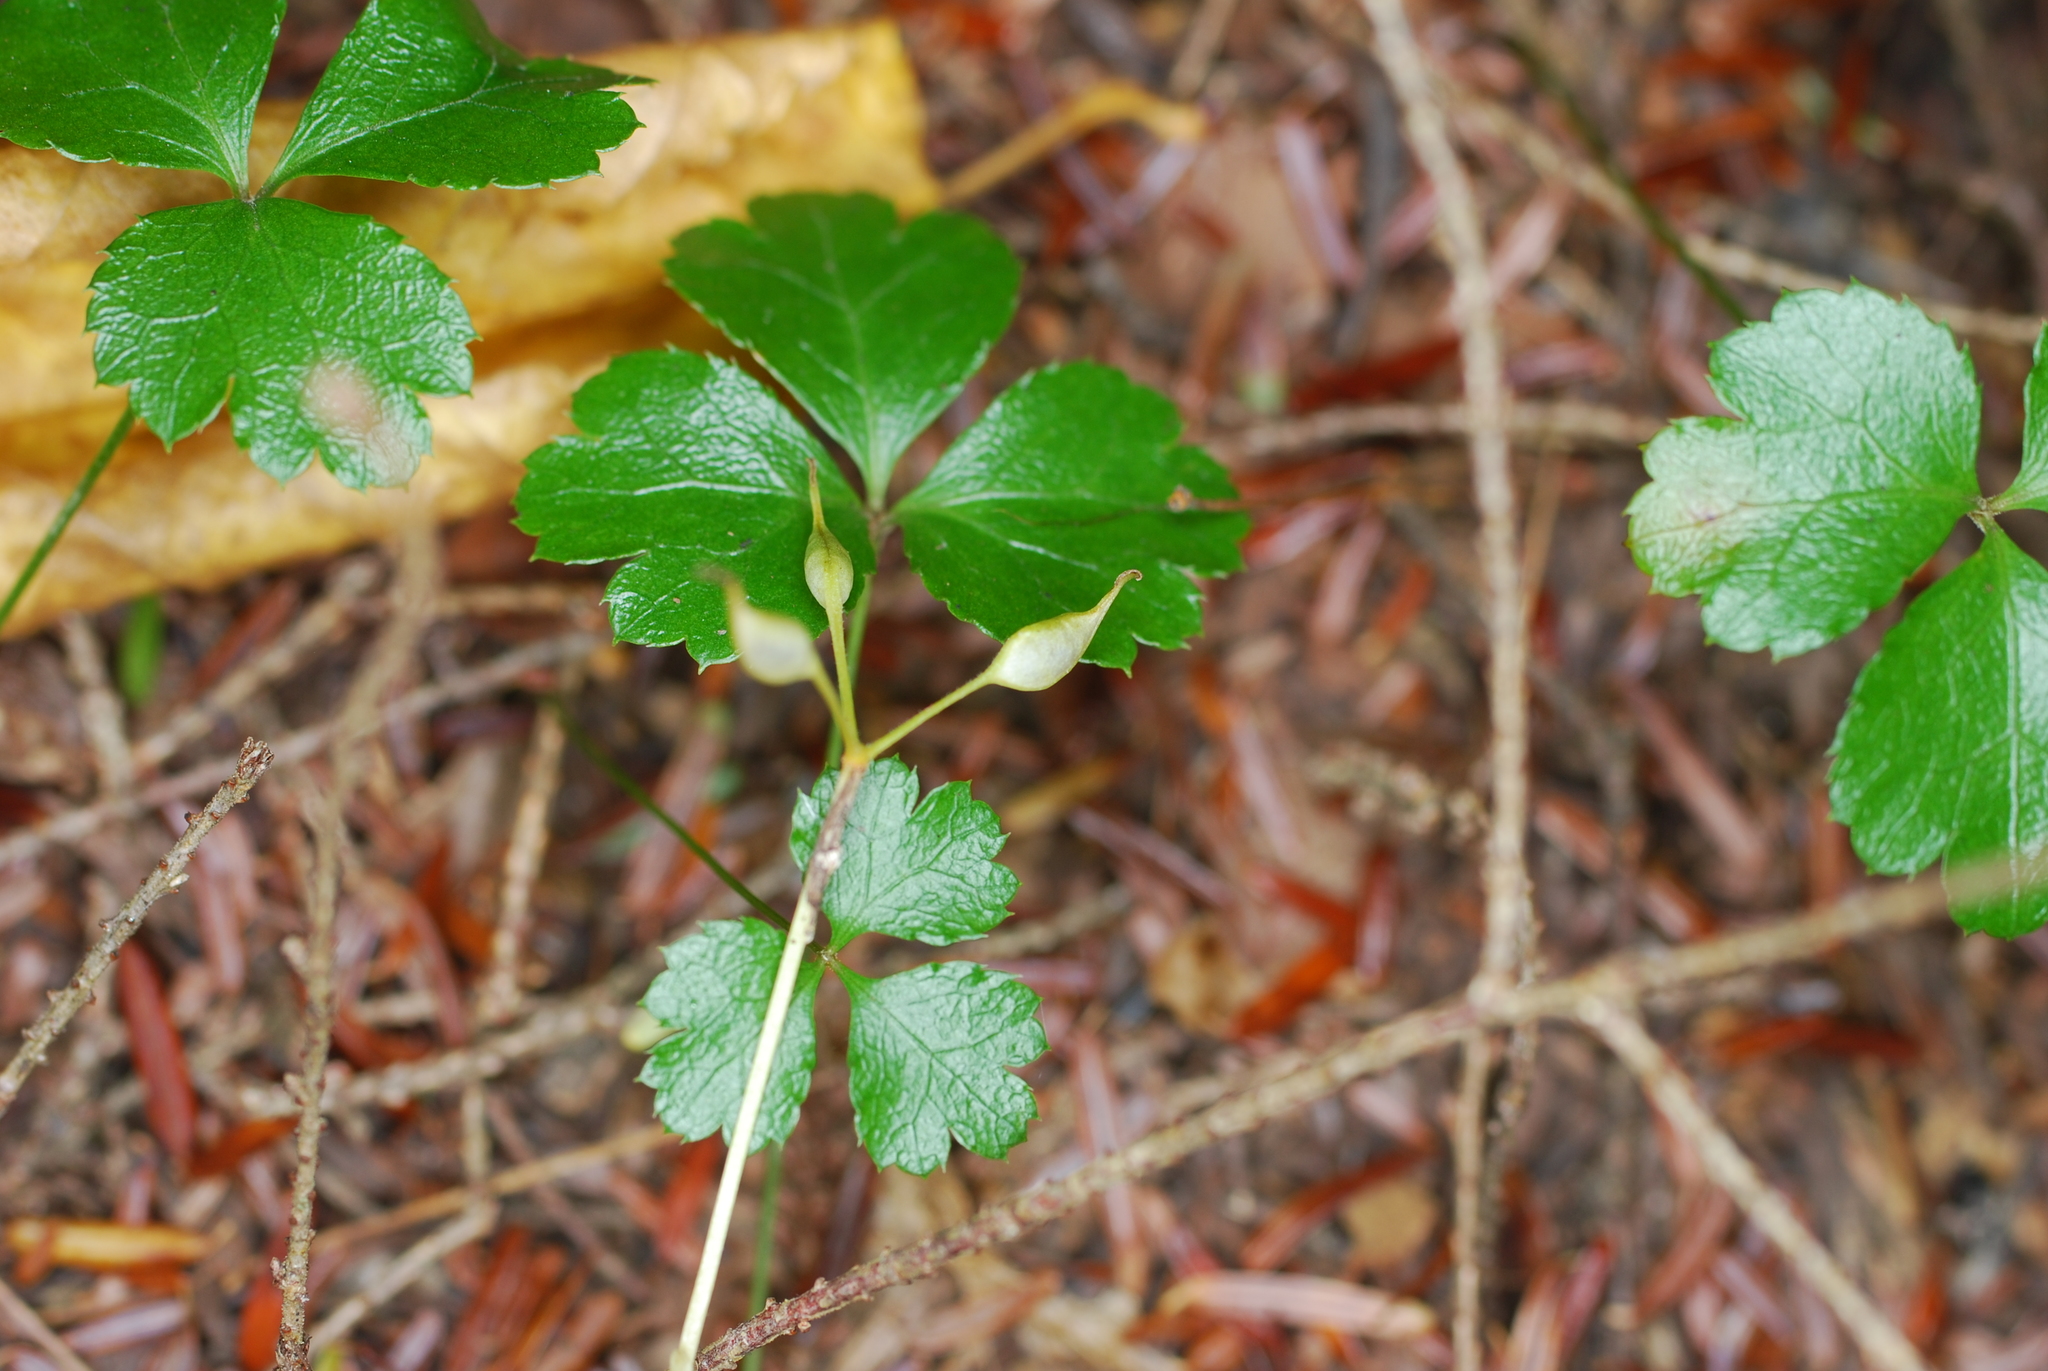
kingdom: Plantae
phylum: Tracheophyta
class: Magnoliopsida
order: Ranunculales
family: Ranunculaceae
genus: Coptis
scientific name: Coptis trifolia
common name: Canker-root
